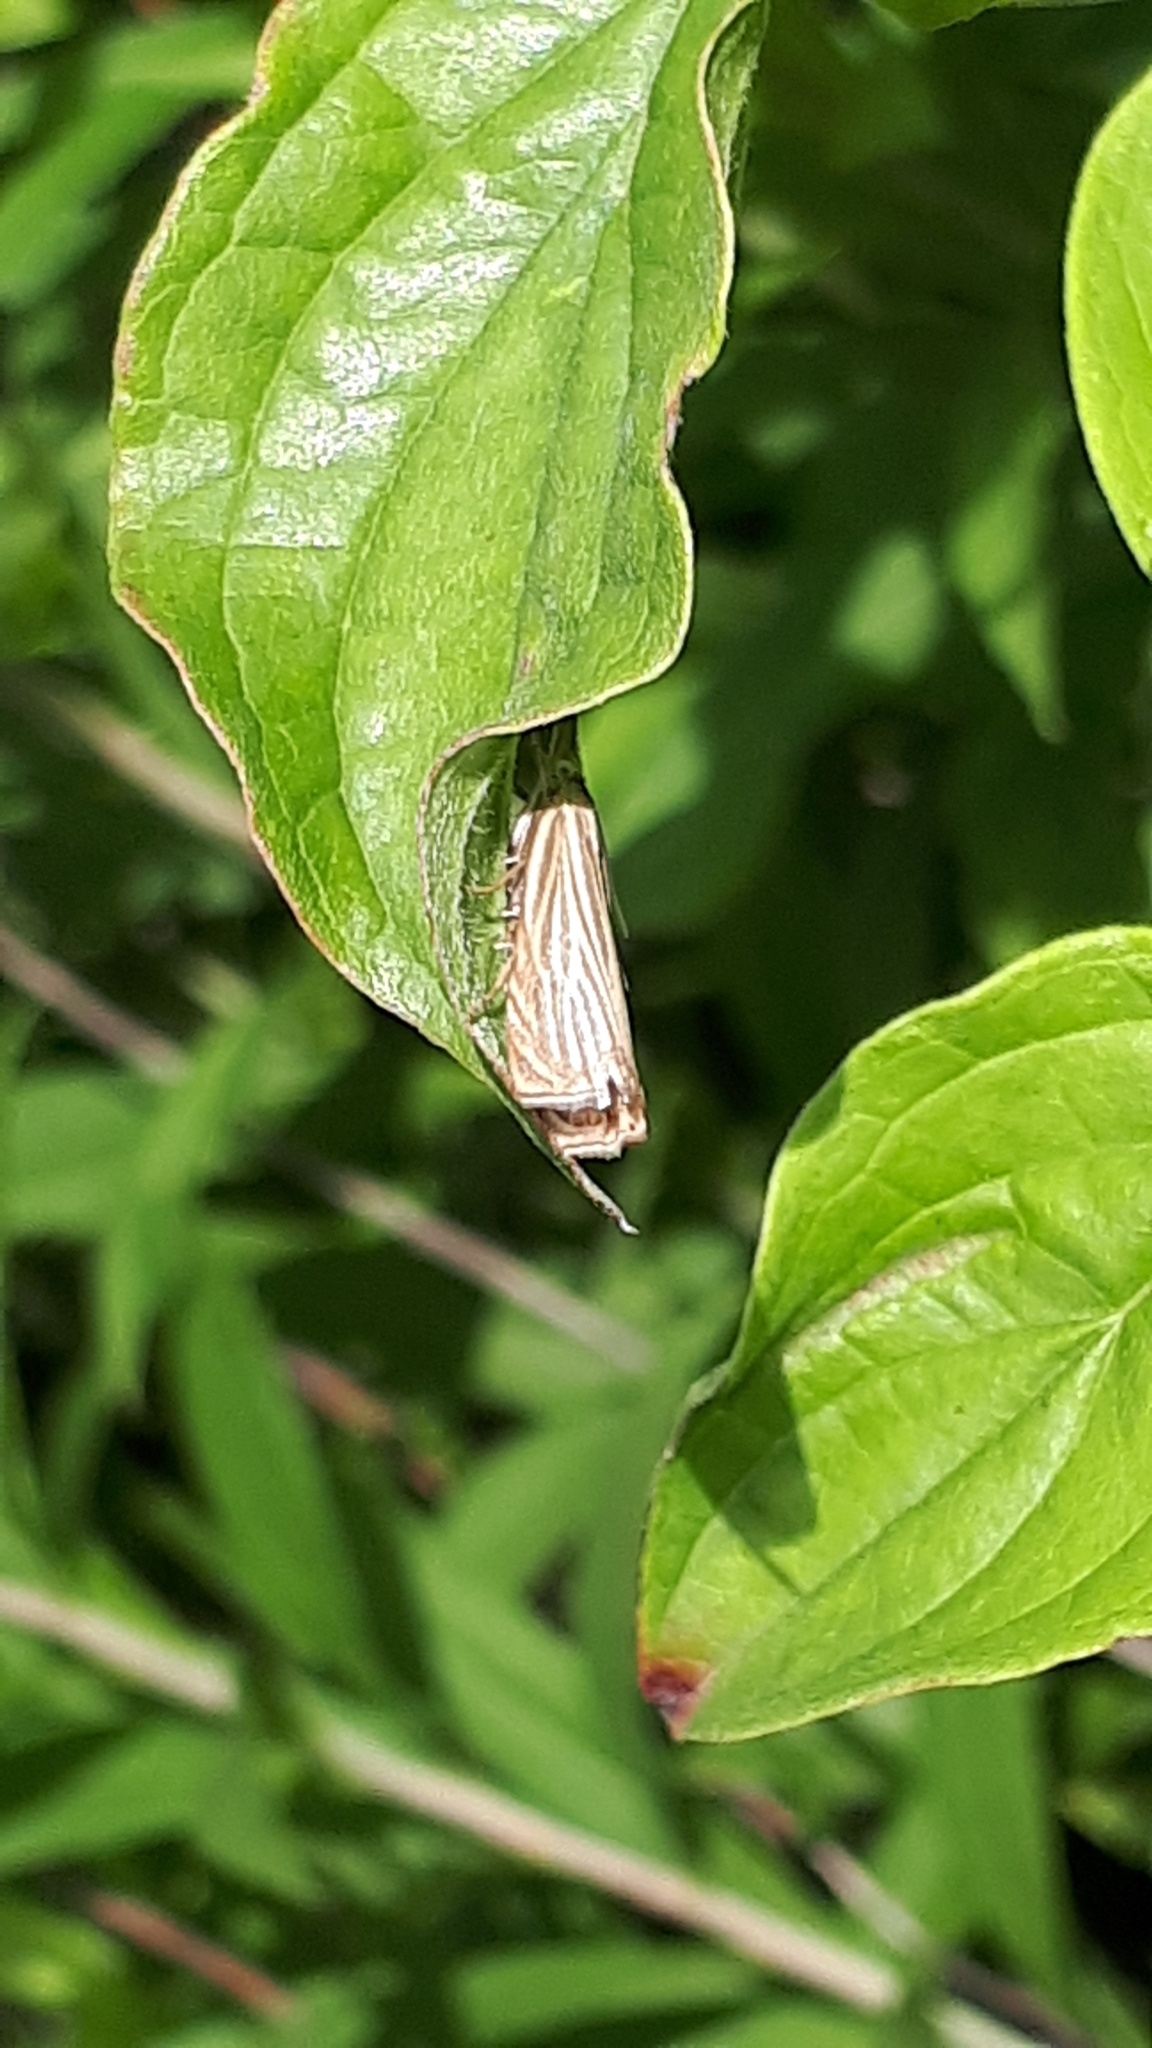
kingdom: Animalia
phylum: Arthropoda
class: Insecta
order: Lepidoptera
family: Crambidae
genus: Chrysoteuchia
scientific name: Chrysoteuchia culmella
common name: Garden grass-veneer
